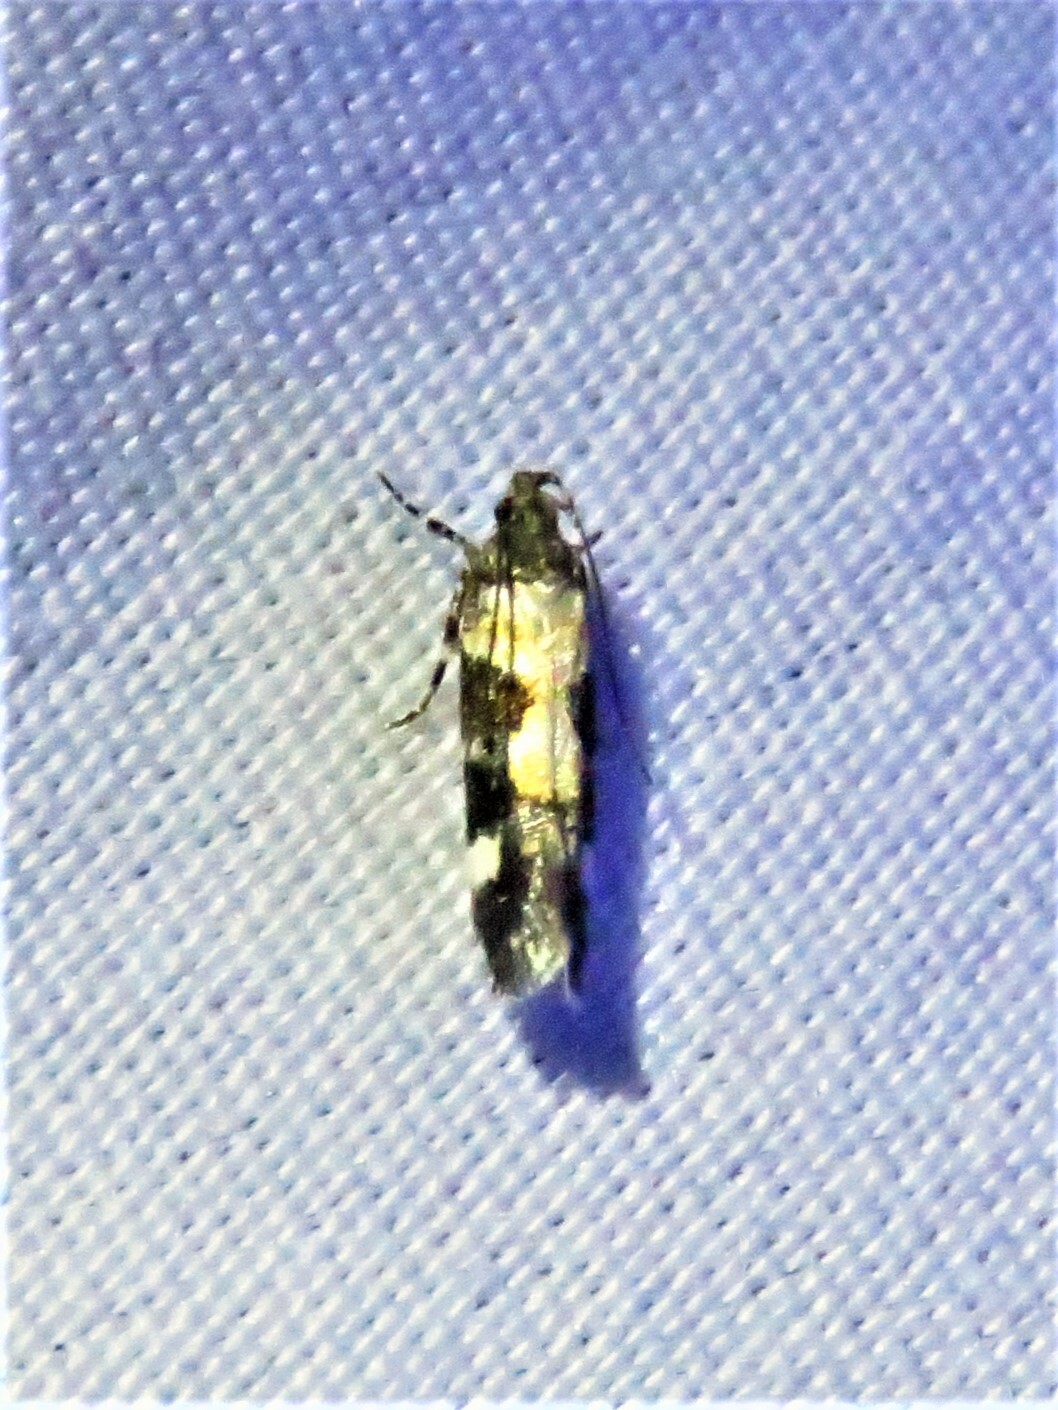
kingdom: Animalia
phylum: Arthropoda
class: Insecta
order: Lepidoptera
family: Gelechiidae
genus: Stegasta
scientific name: Stegasta bosqueella
